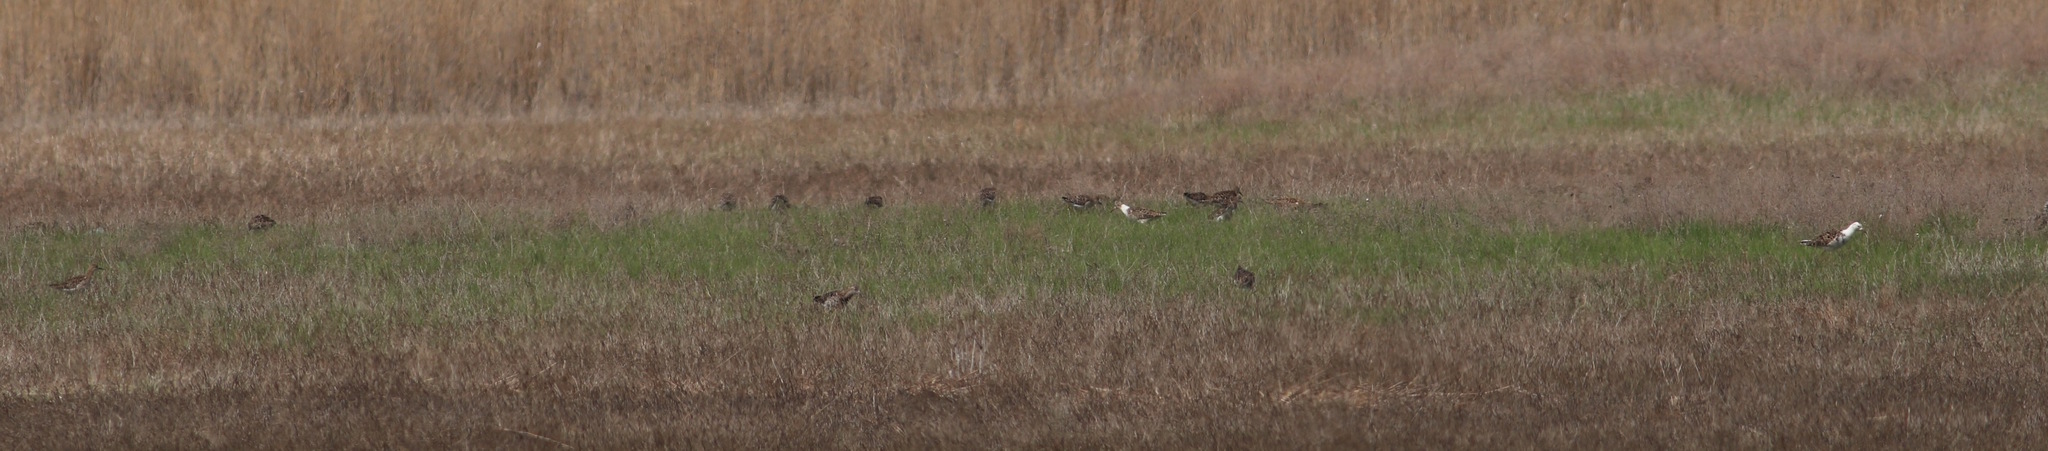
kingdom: Animalia
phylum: Chordata
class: Aves
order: Charadriiformes
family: Scolopacidae
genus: Calidris
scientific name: Calidris pugnax
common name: Ruff
